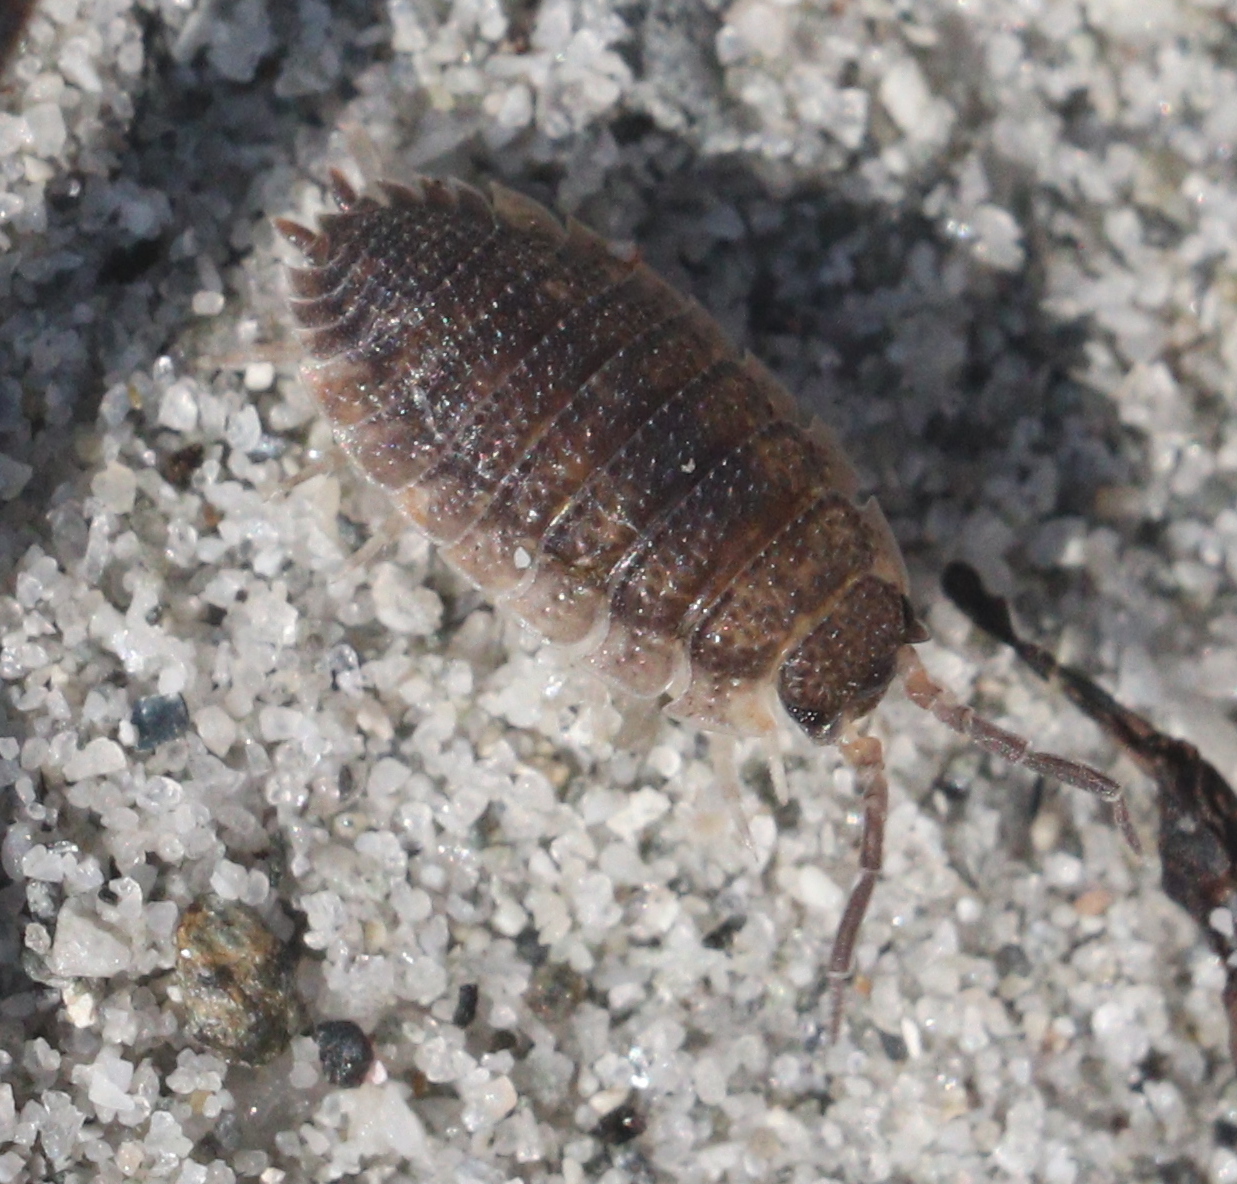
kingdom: Animalia
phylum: Arthropoda
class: Malacostraca
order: Isopoda
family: Porcellionidae
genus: Porcellio
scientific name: Porcellio scaber
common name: Common rough woodlouse
